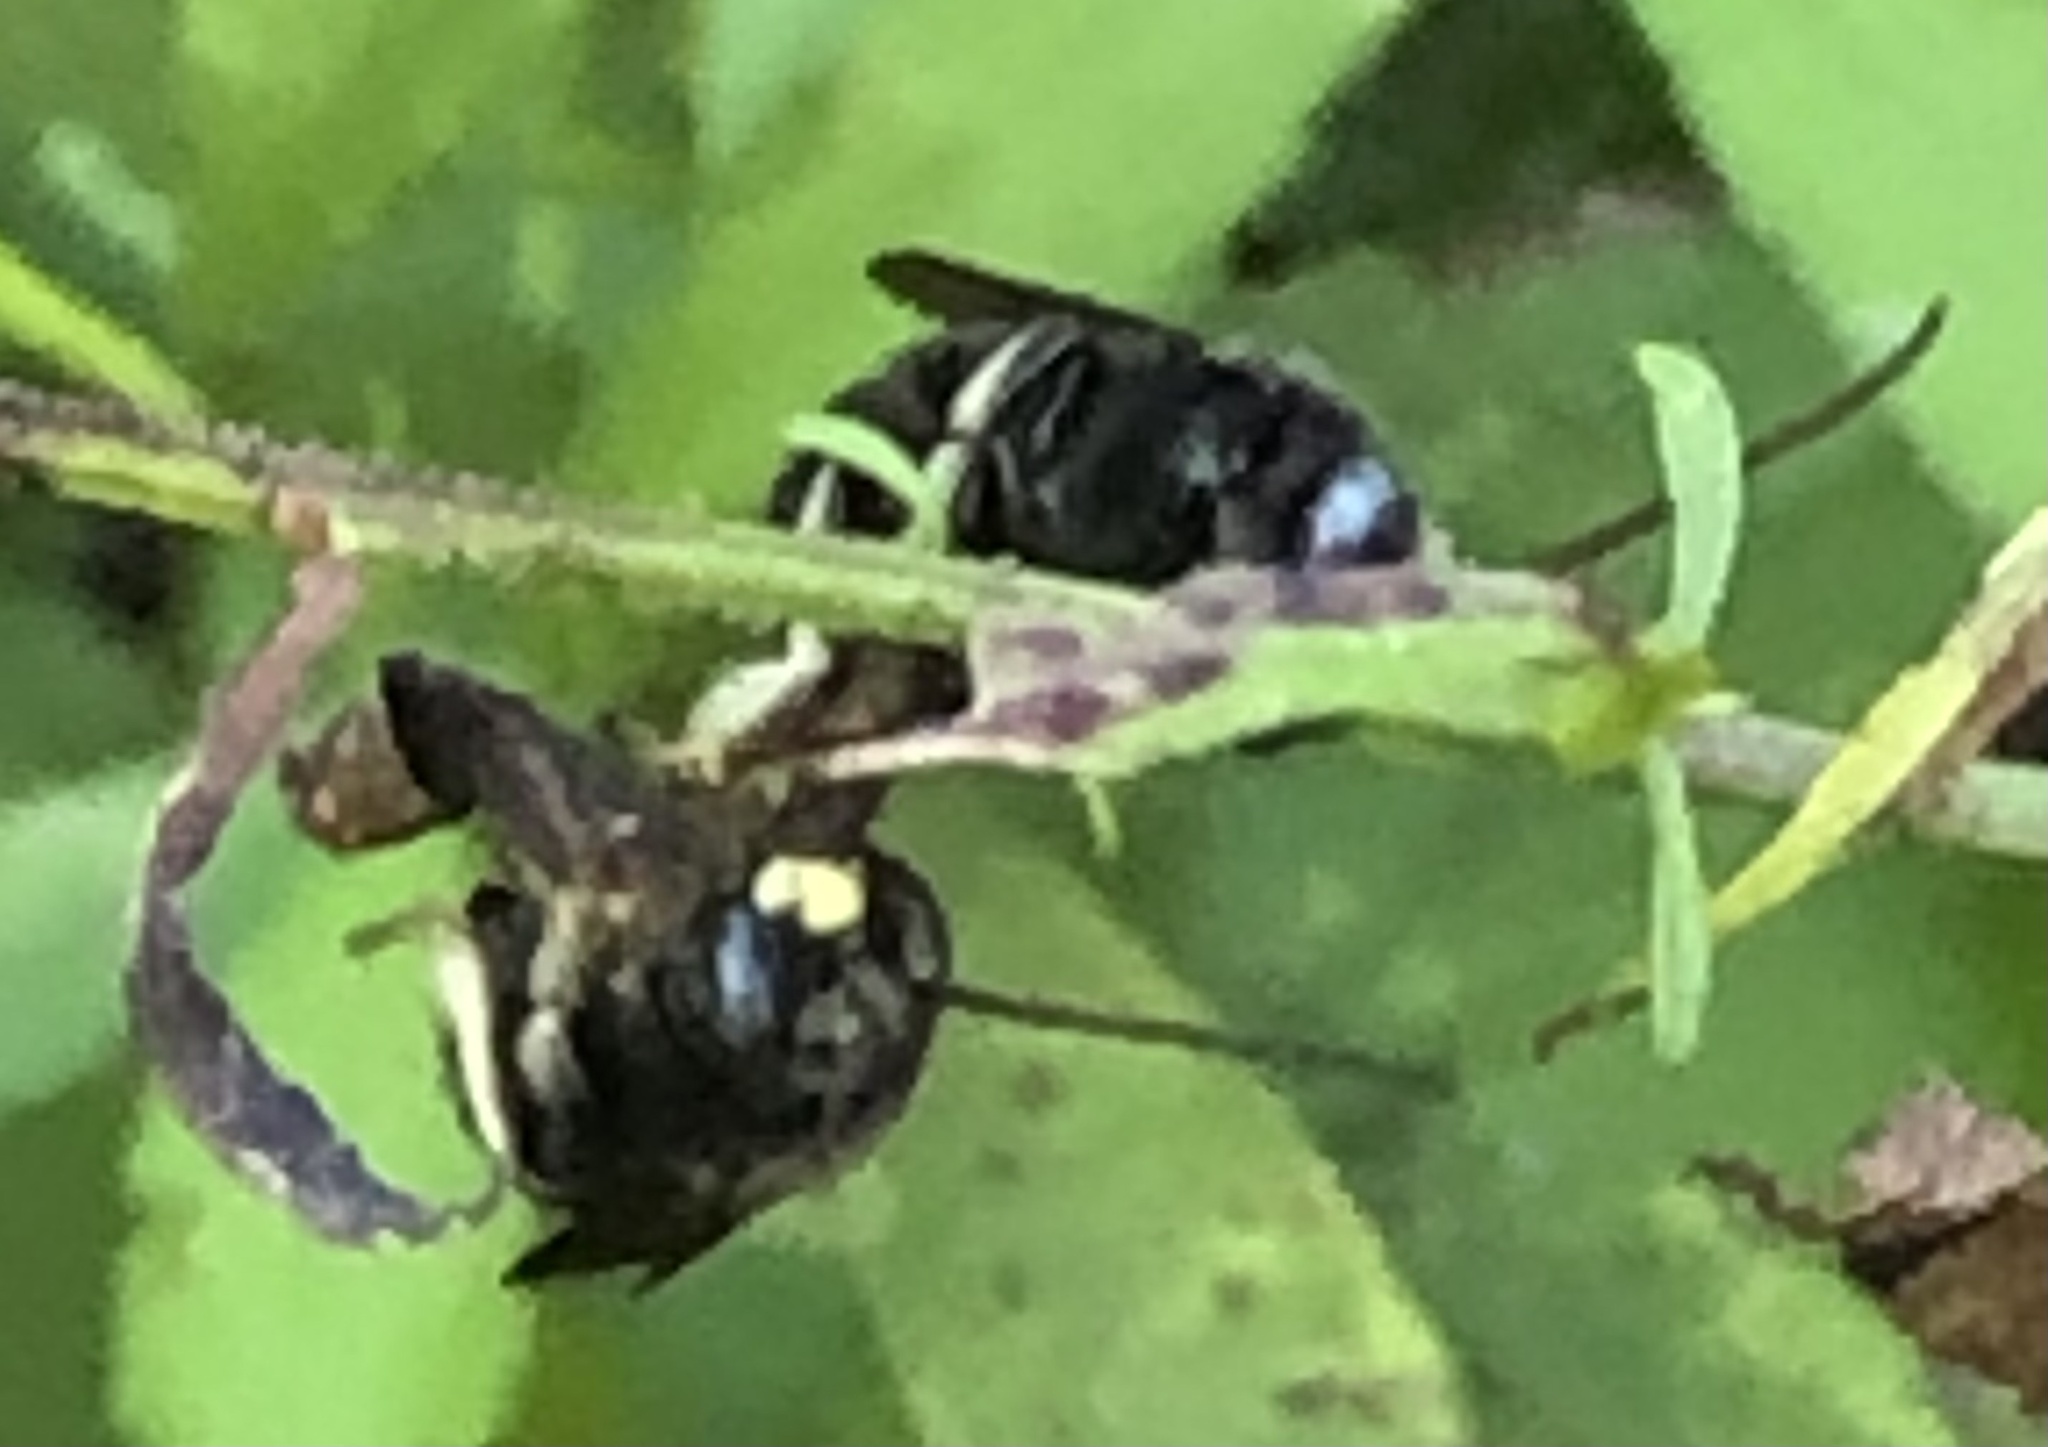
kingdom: Animalia
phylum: Arthropoda
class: Insecta
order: Hymenoptera
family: Apidae
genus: Melissodes
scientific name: Melissodes bimaculatus
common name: Two-spotted long-horned bee
